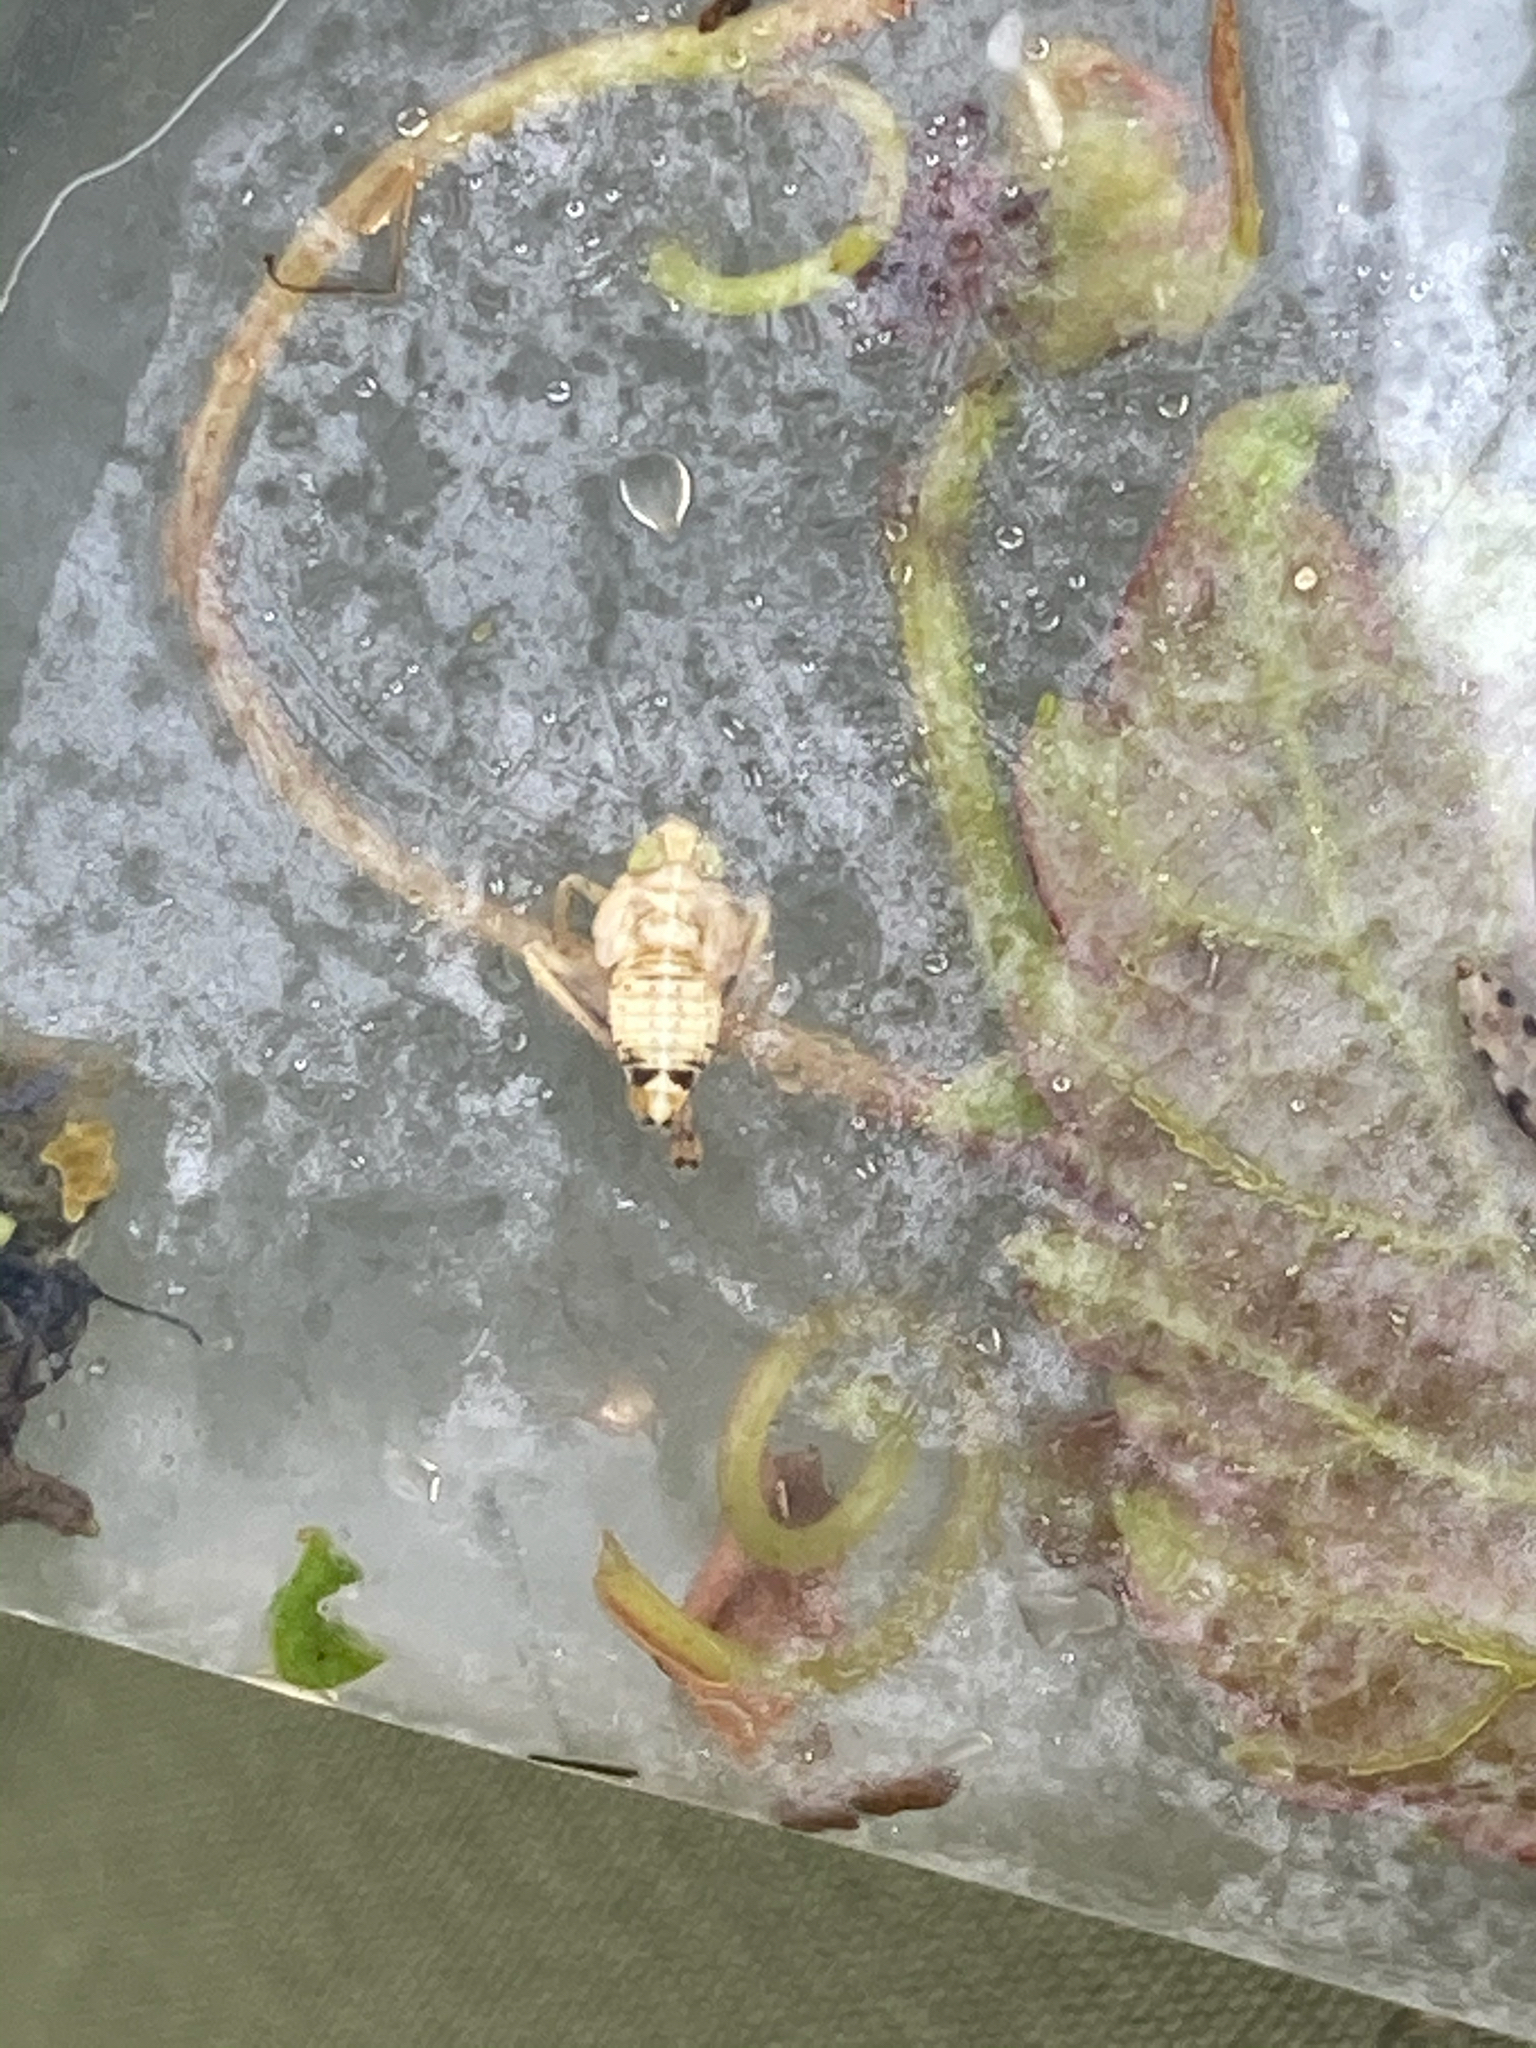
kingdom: Animalia
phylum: Arthropoda
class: Insecta
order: Hemiptera
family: Cicadellidae
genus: Jikradia
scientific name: Jikradia olitoria
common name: Coppery leafhopper
